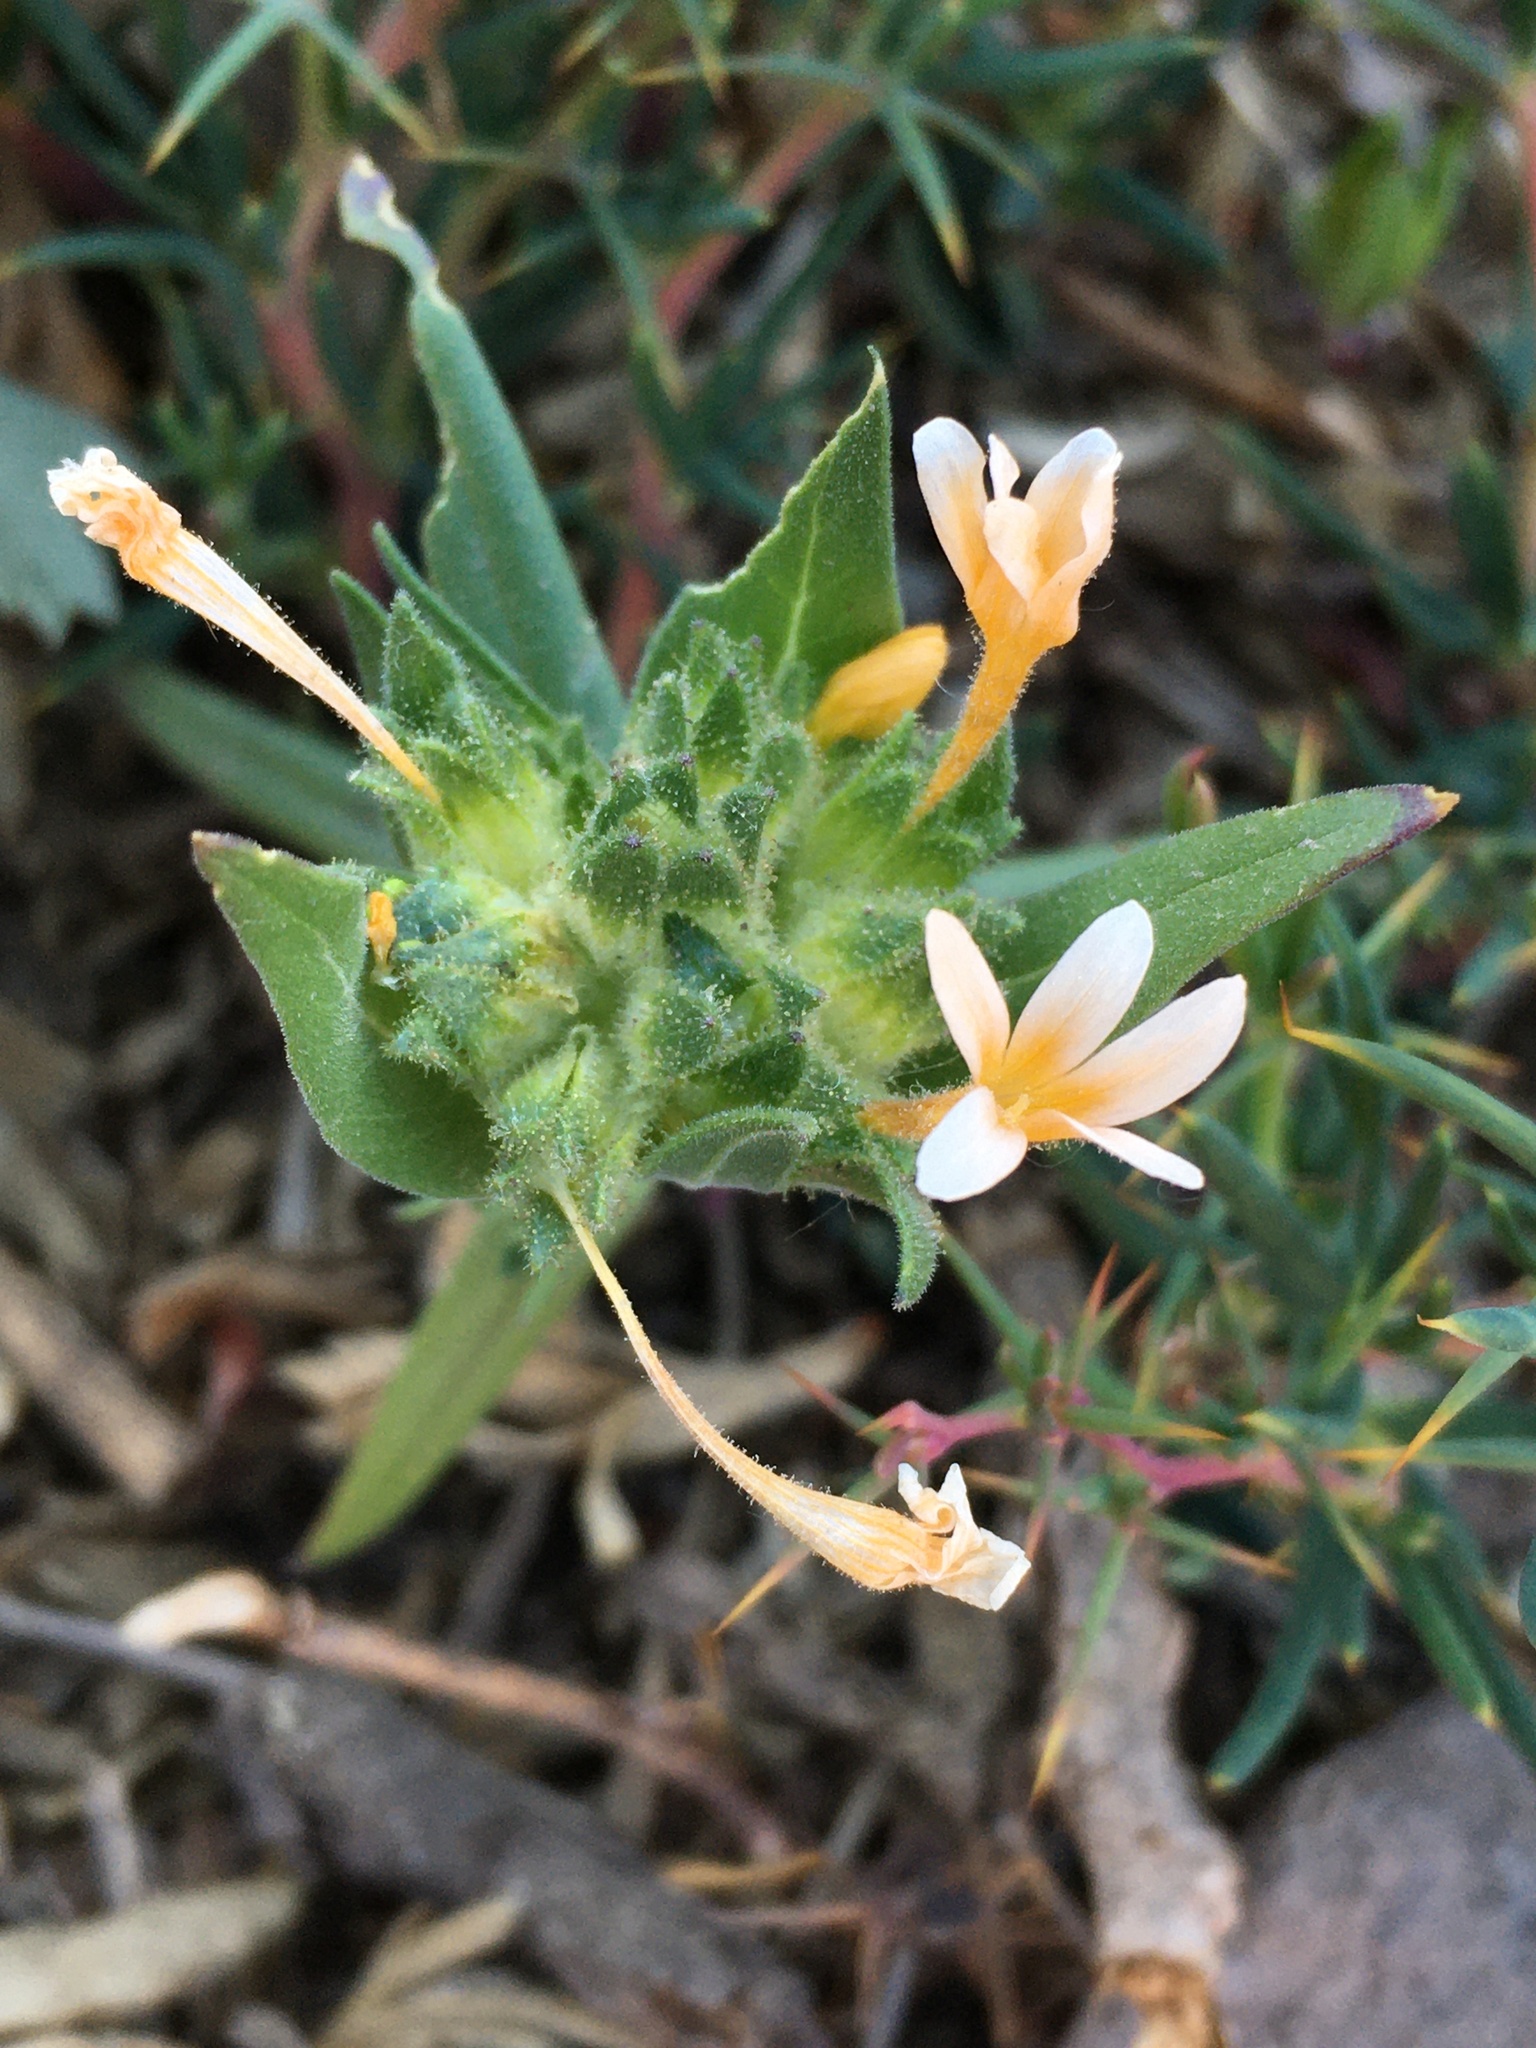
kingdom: Plantae
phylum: Tracheophyta
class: Magnoliopsida
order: Ericales
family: Polemoniaceae
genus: Collomia
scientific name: Collomia biflora
